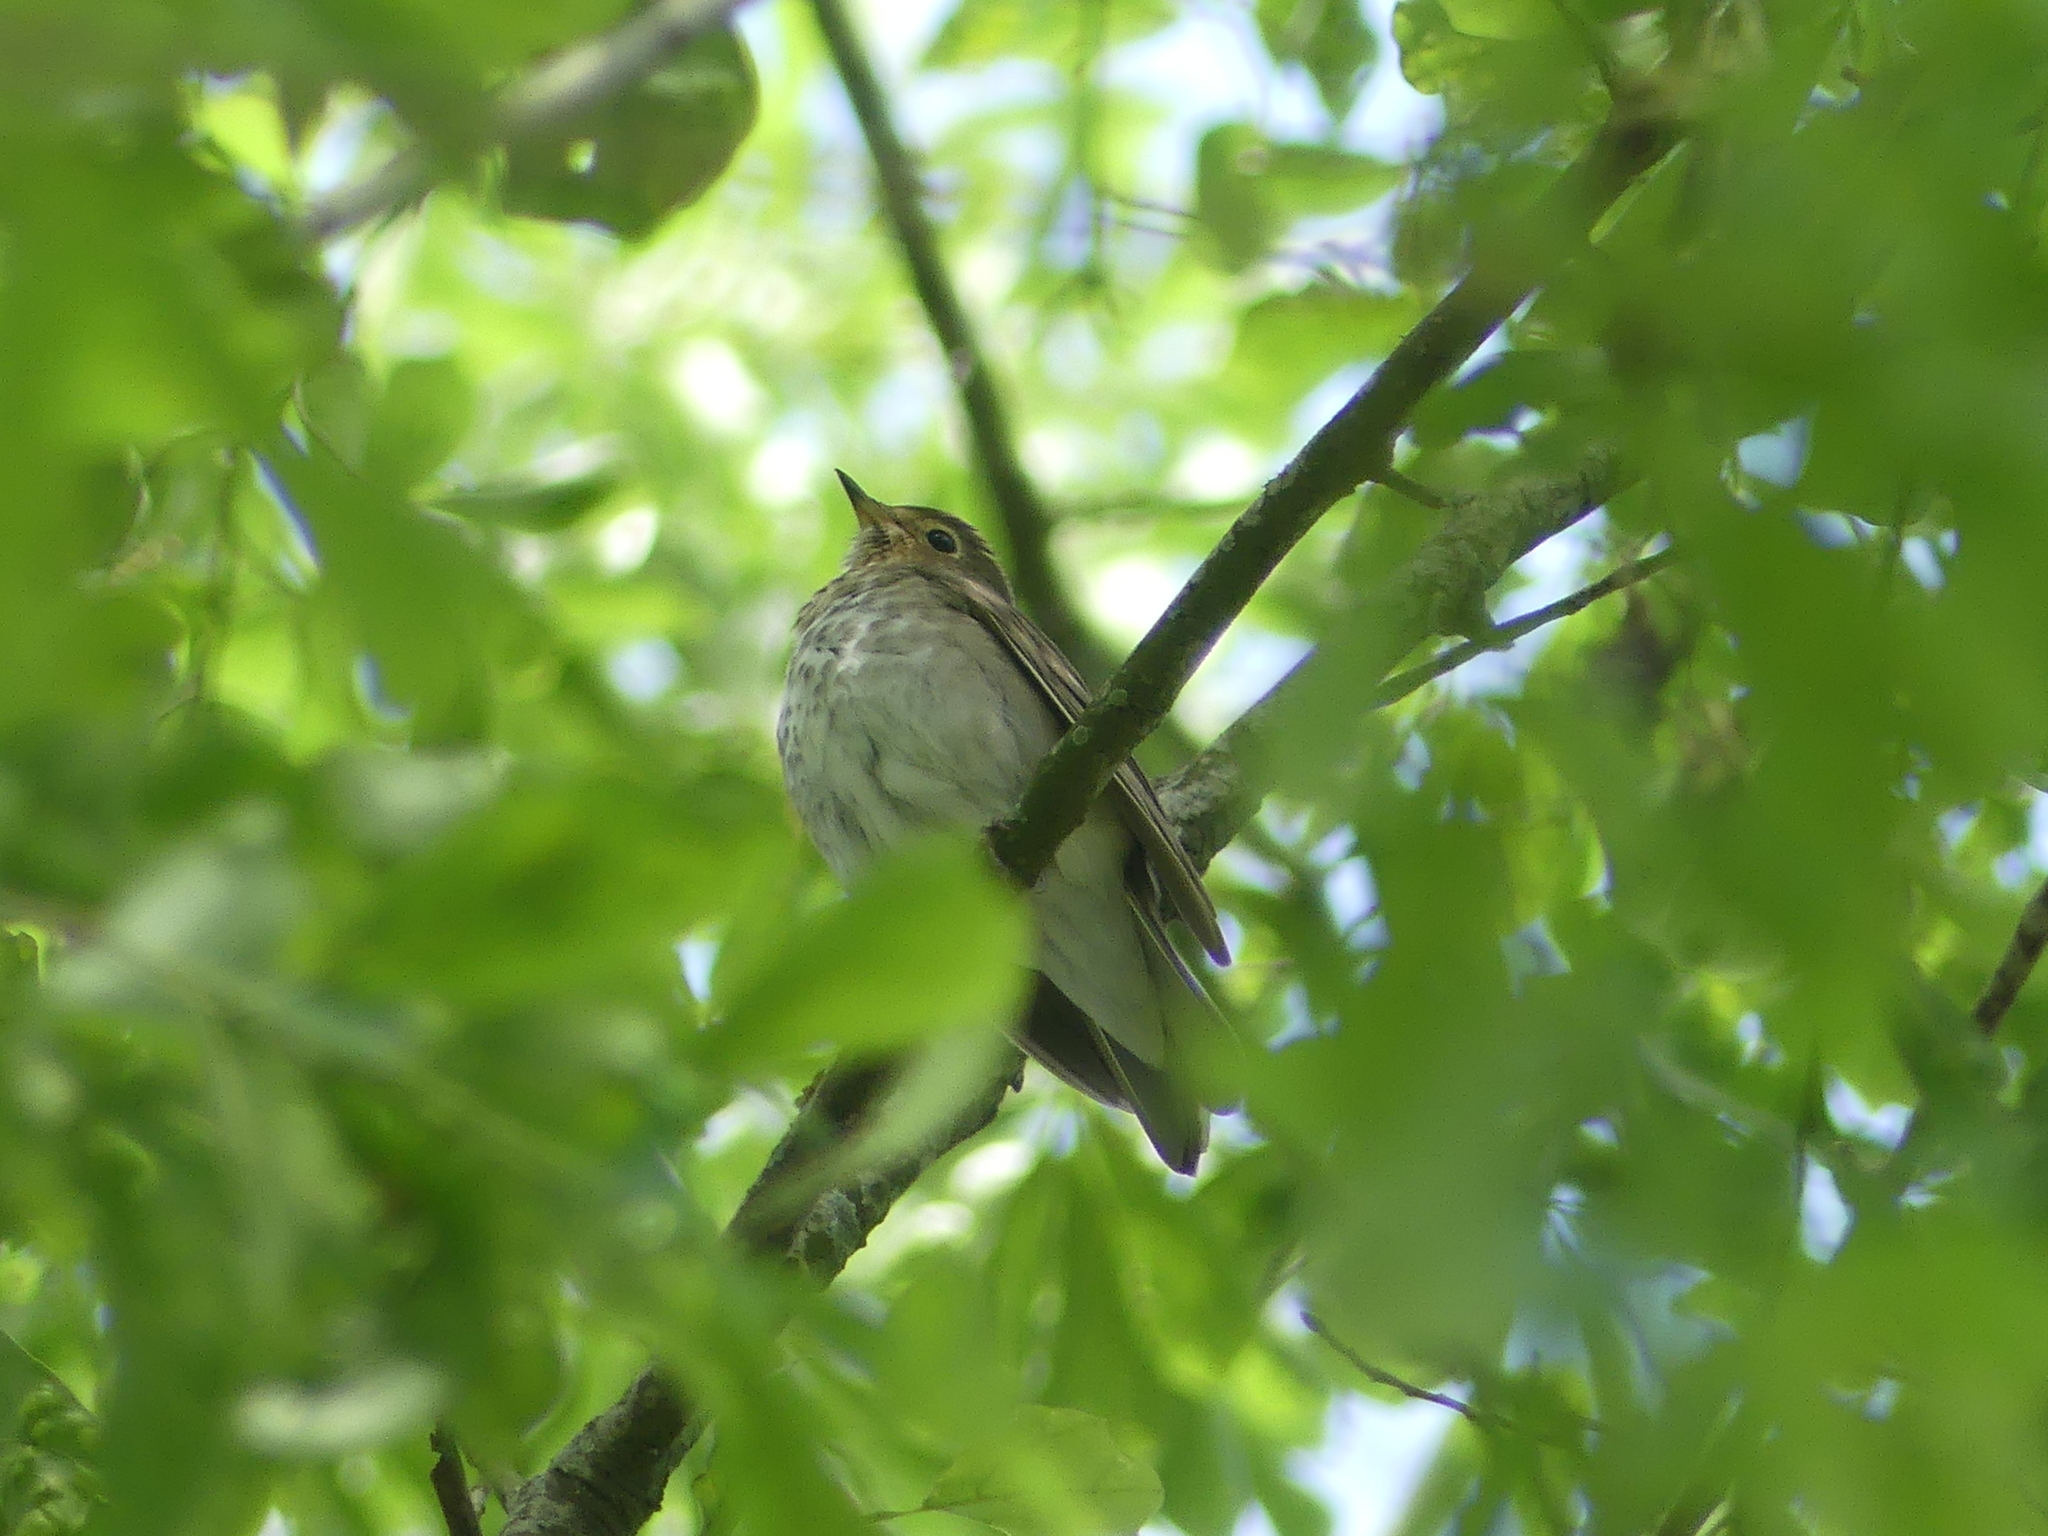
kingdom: Animalia
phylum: Chordata
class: Aves
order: Passeriformes
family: Turdidae
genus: Catharus
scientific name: Catharus ustulatus
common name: Swainson's thrush
